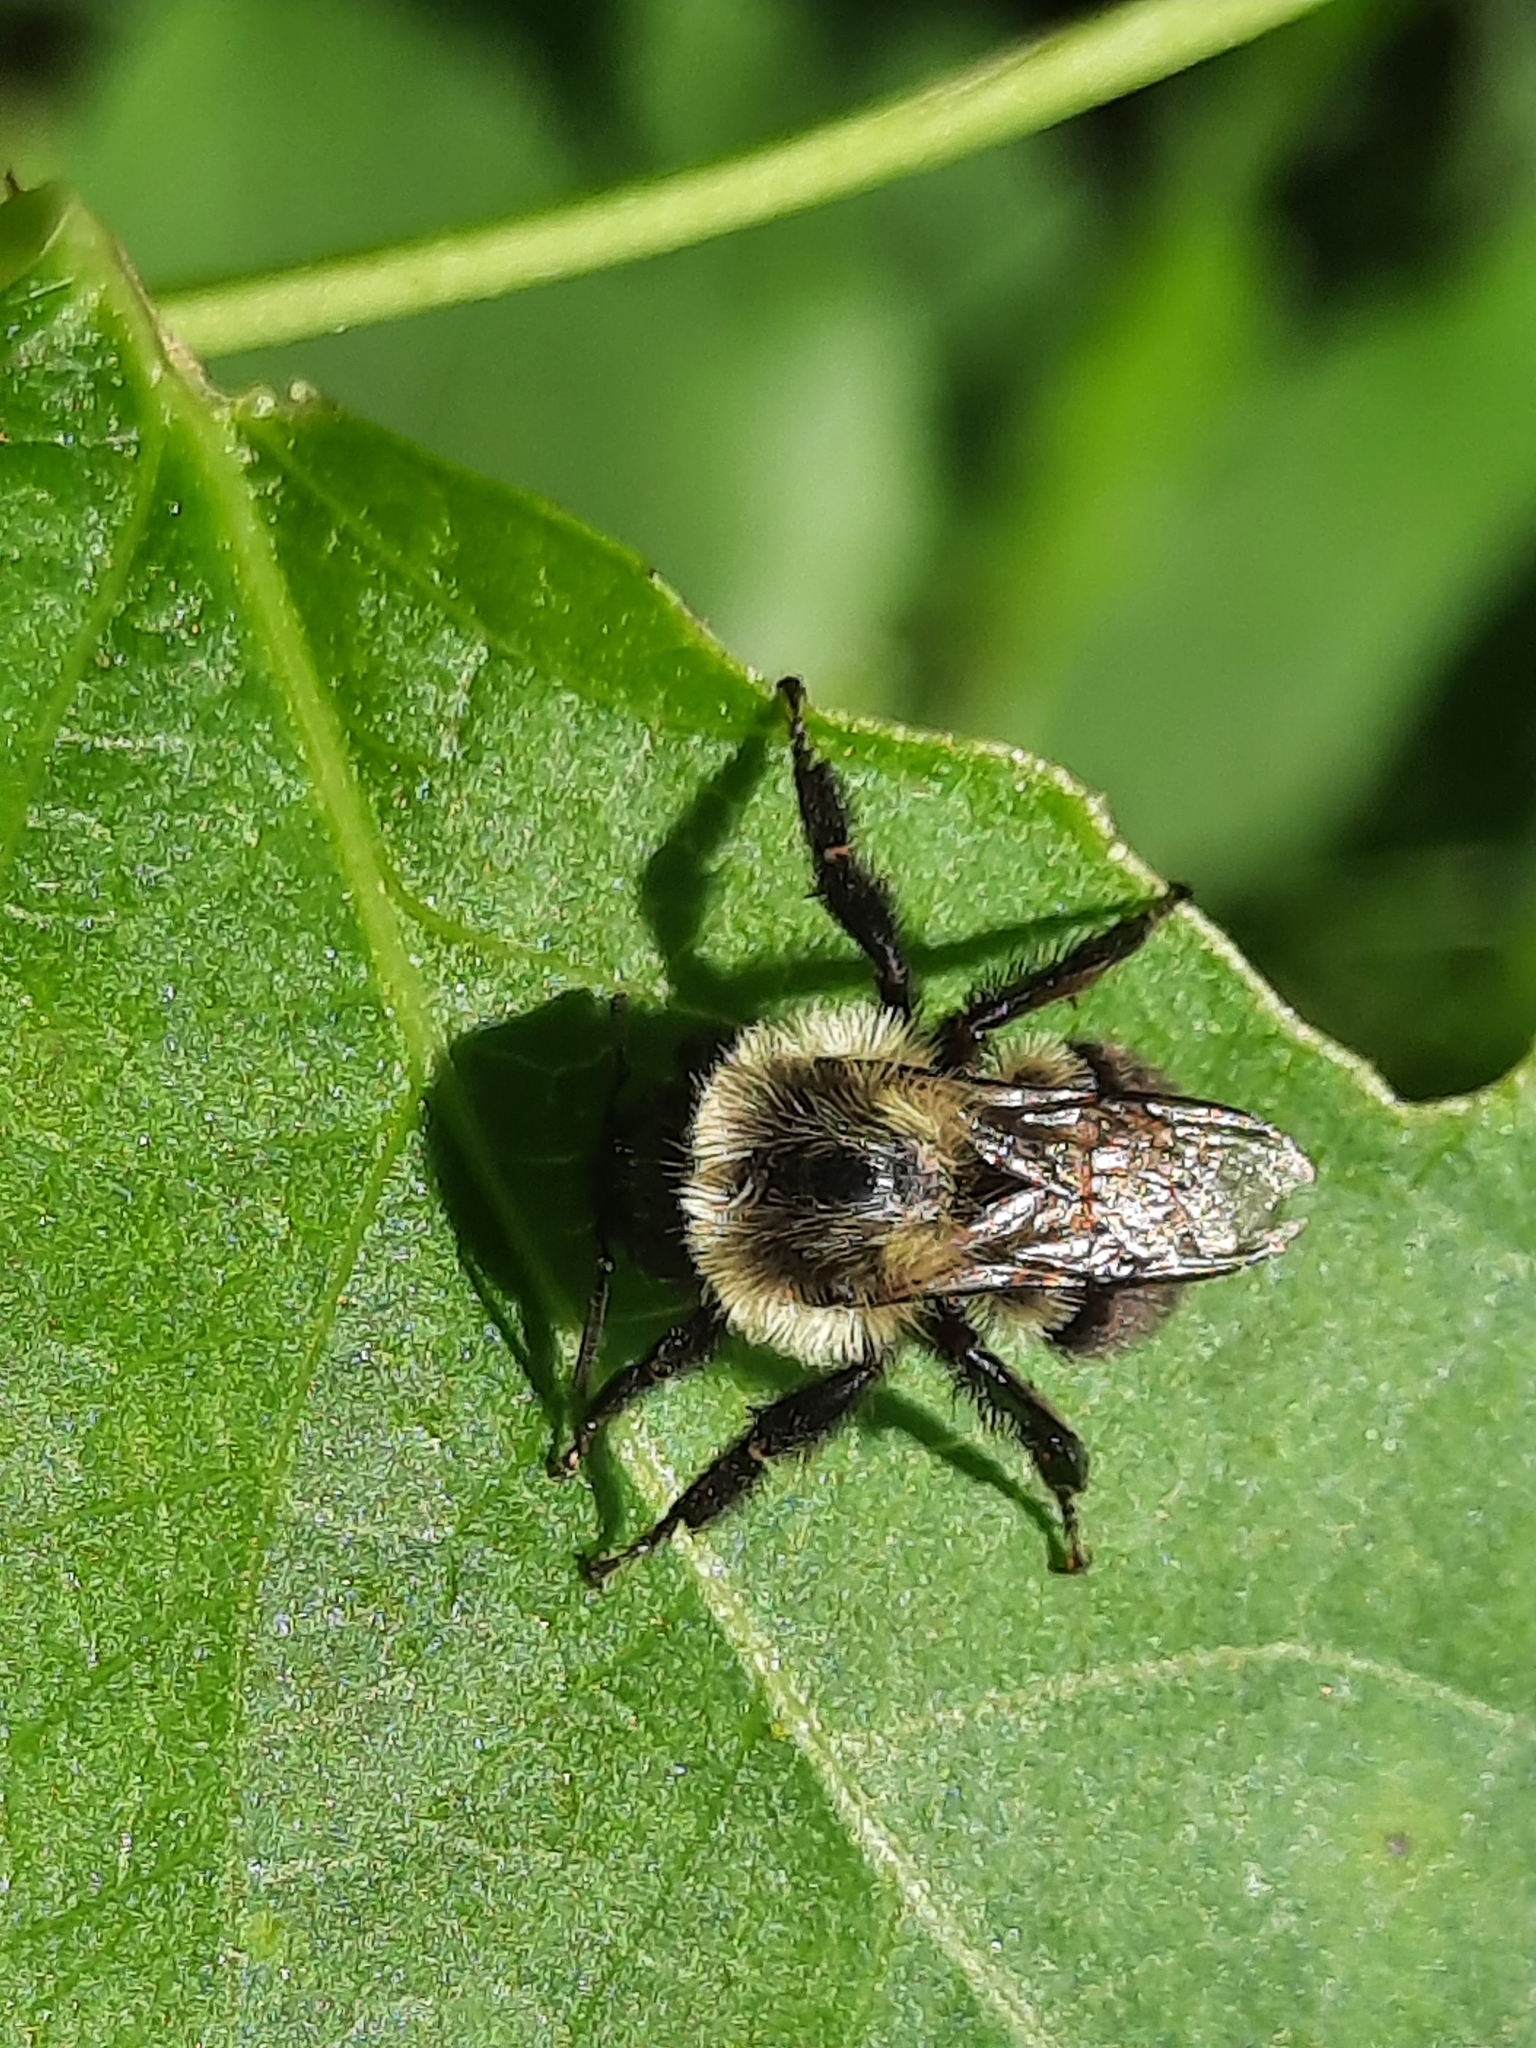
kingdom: Animalia
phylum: Arthropoda
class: Insecta
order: Hymenoptera
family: Apidae
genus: Bombus
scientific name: Bombus impatiens
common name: Common eastern bumble bee
